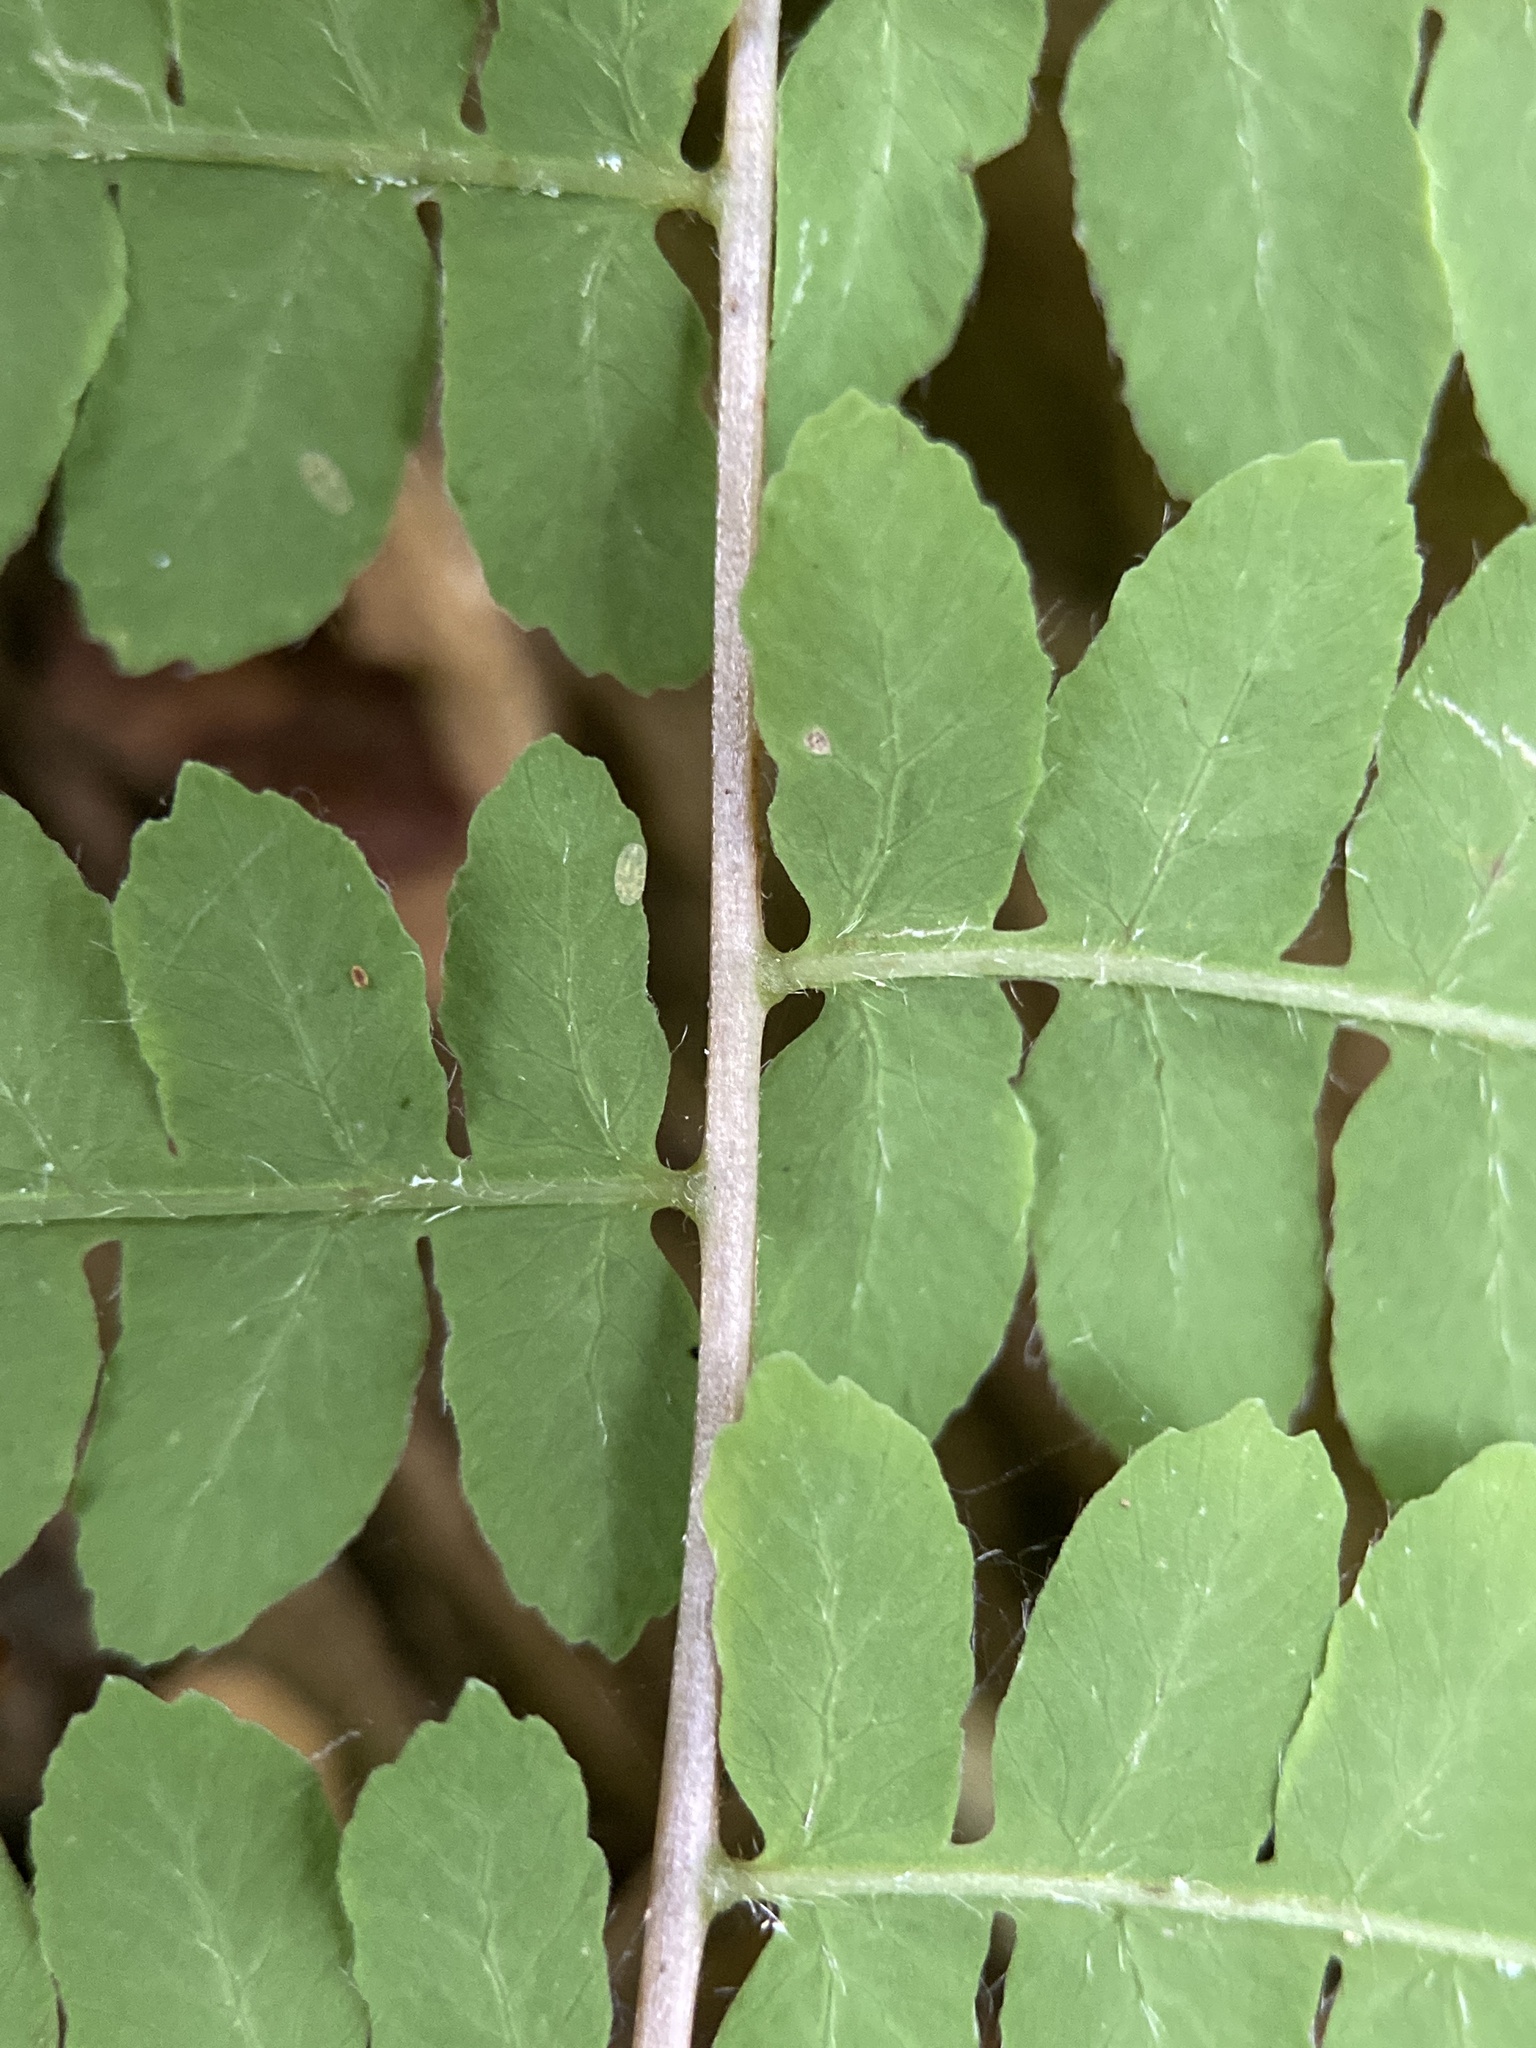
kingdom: Plantae
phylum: Tracheophyta
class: Polypodiopsida
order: Polypodiales
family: Thelypteridaceae
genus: Thelypteris
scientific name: Thelypteris palustris
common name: Marsh fern
